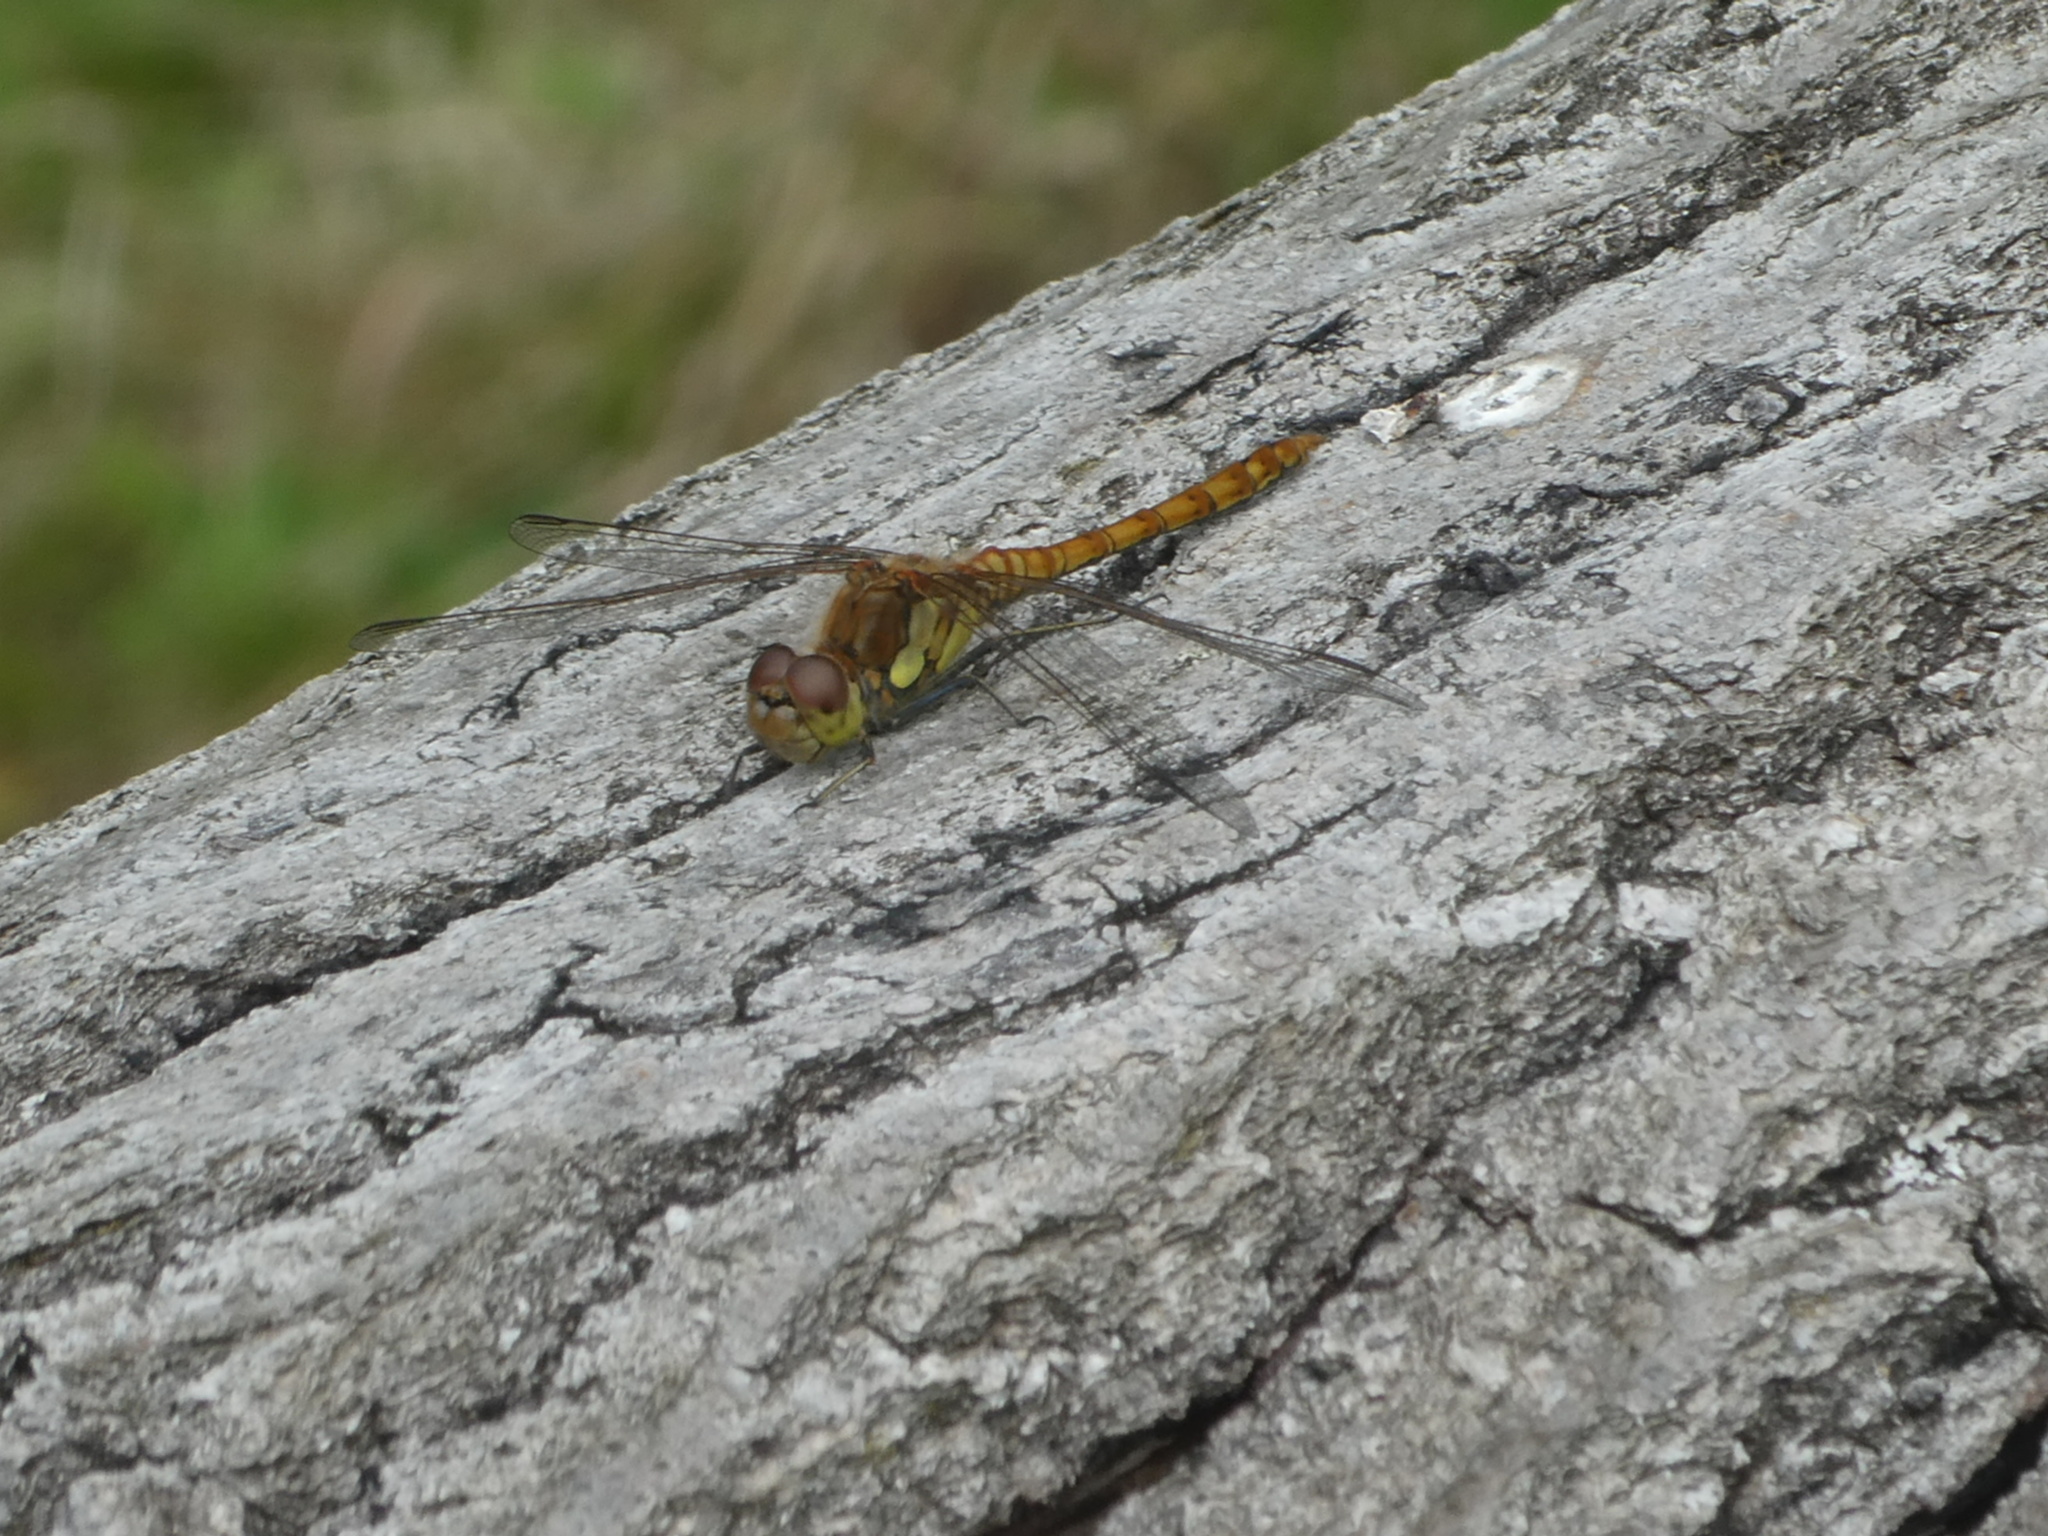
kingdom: Animalia
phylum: Arthropoda
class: Insecta
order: Odonata
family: Libellulidae
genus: Sympetrum
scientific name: Sympetrum striolatum
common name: Common darter
